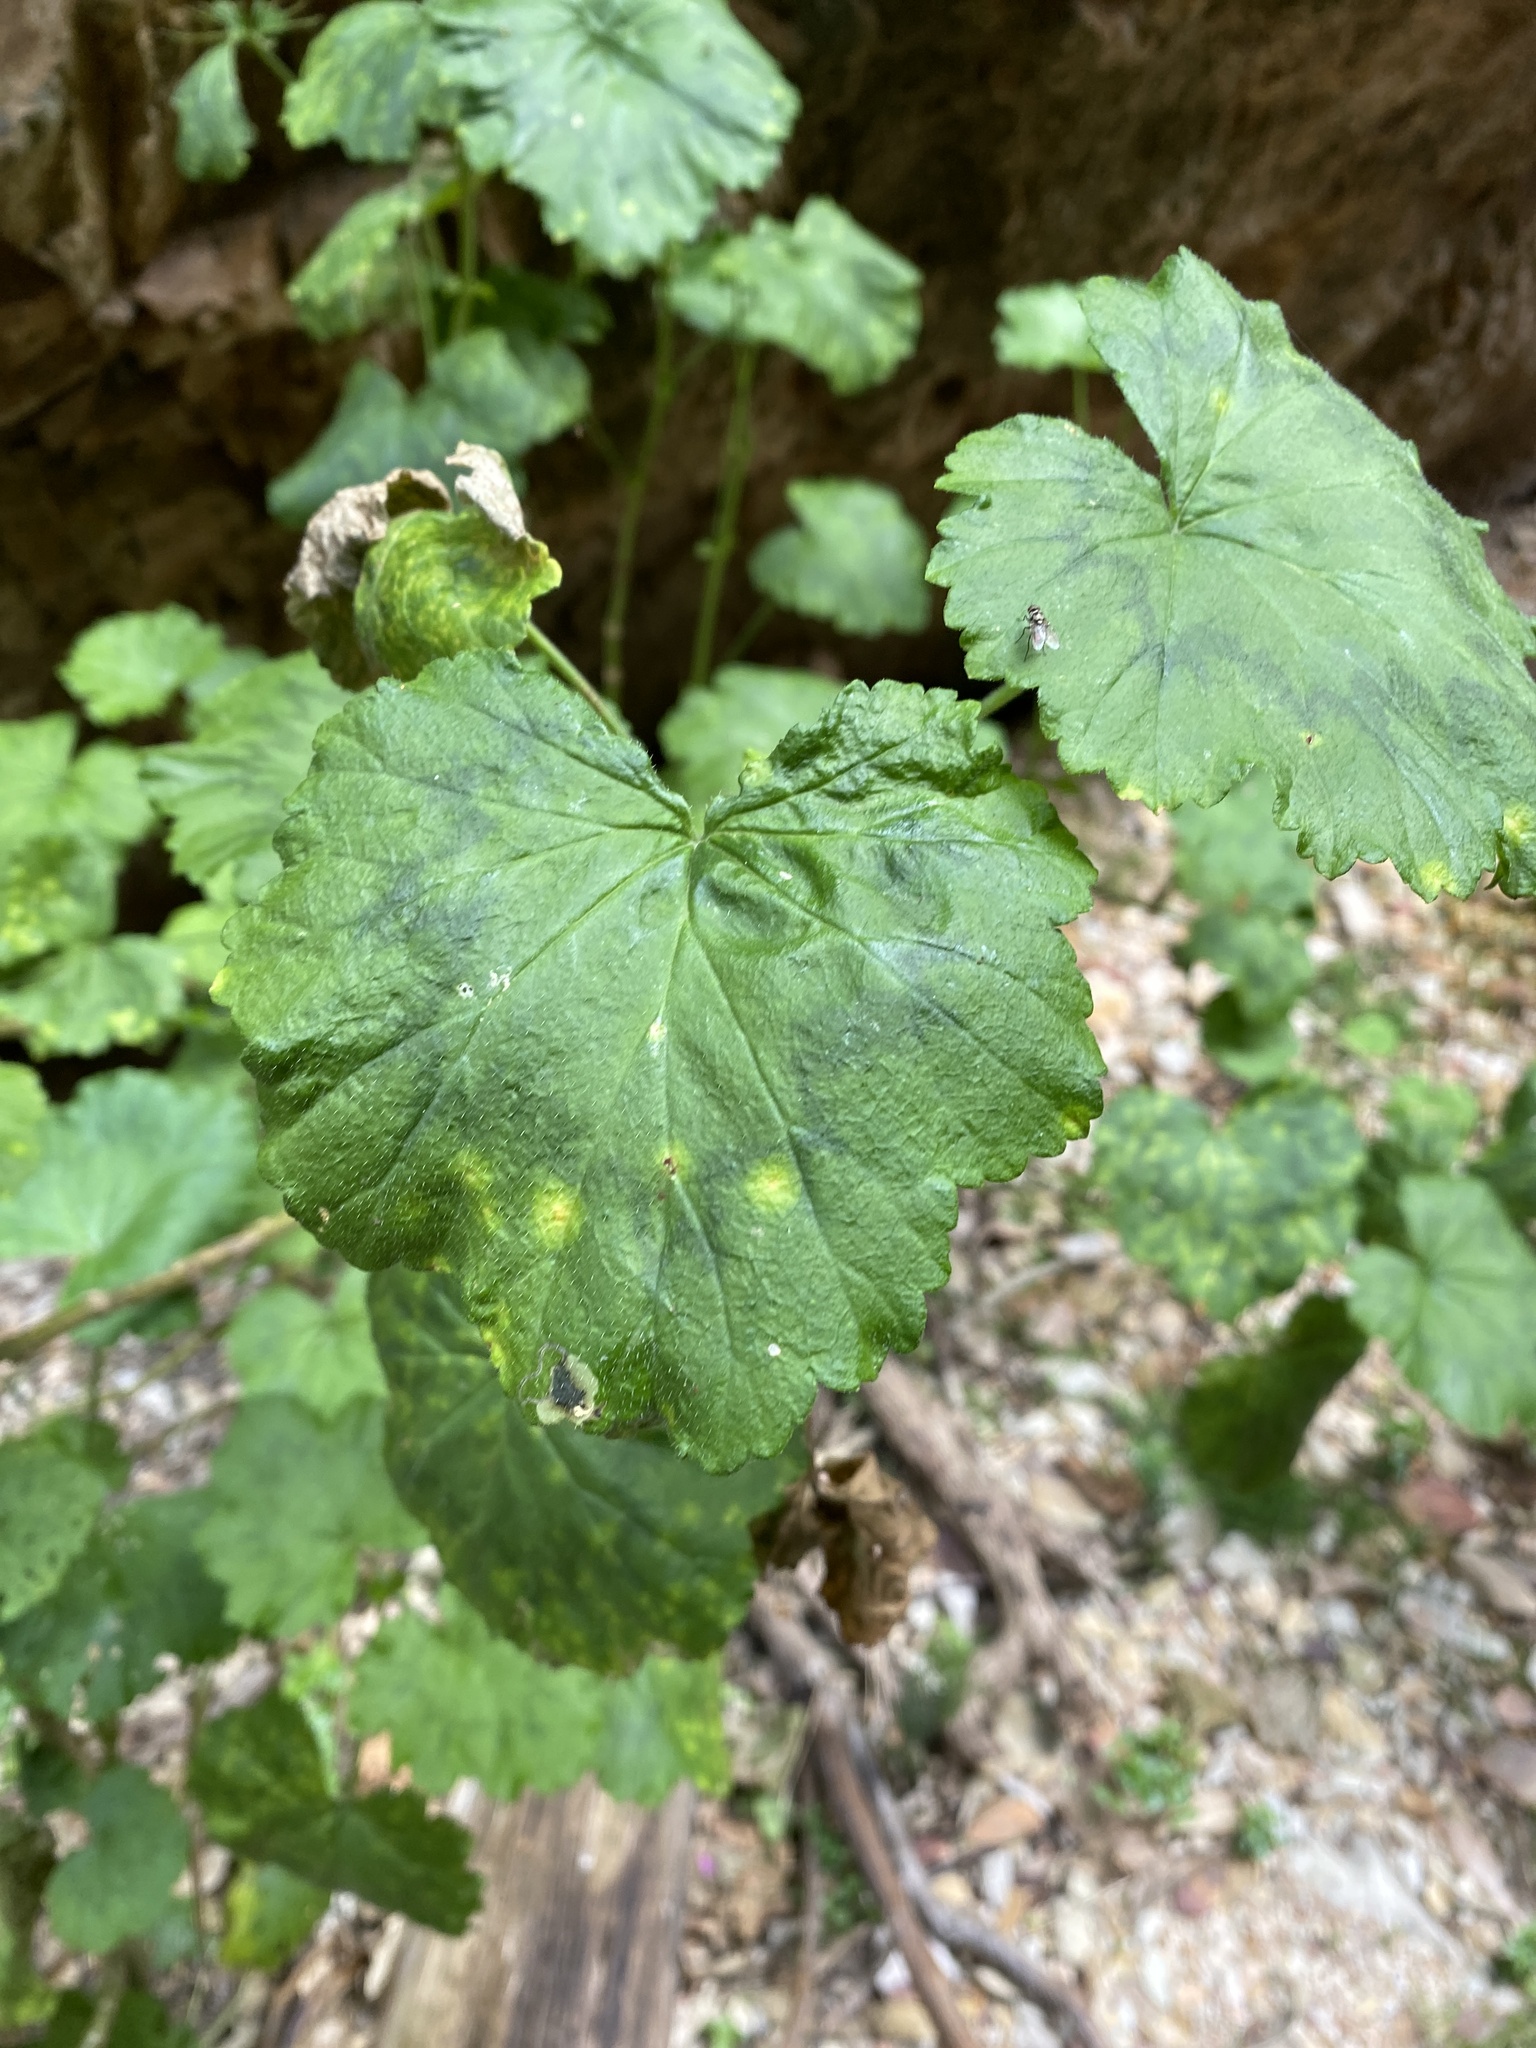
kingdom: Plantae
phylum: Tracheophyta
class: Magnoliopsida
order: Geraniales
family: Geraniaceae
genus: Pelargonium
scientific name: Pelargonium zonale
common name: Horseshoe geranium
